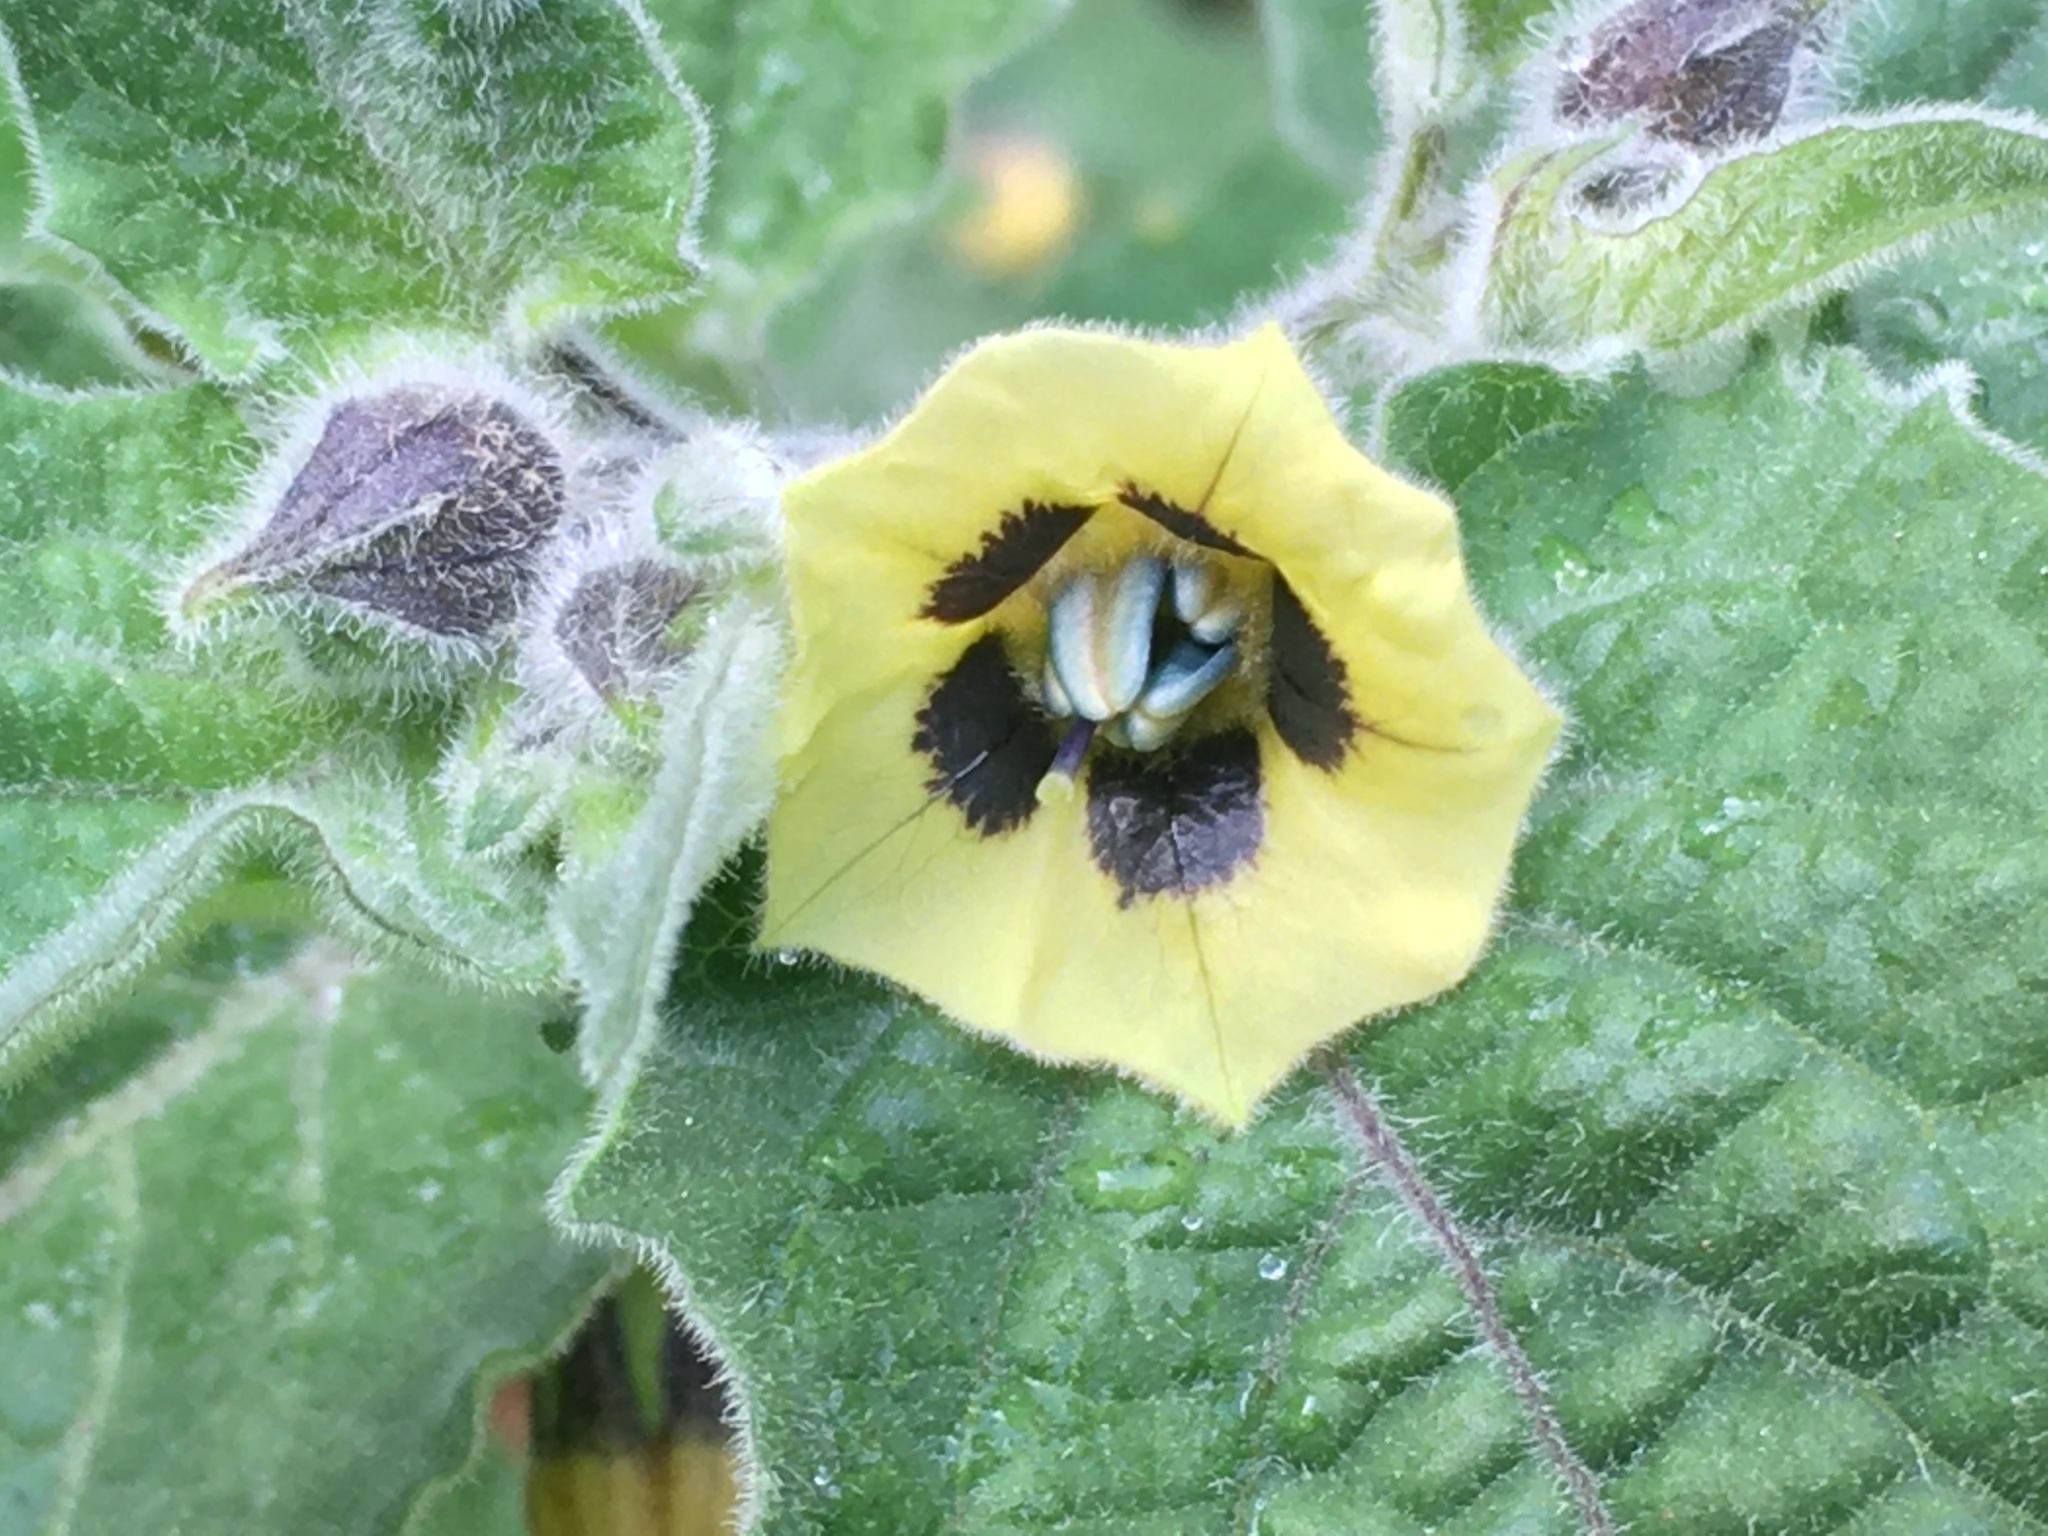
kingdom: Plantae
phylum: Tracheophyta
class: Magnoliopsida
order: Solanales
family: Solanaceae
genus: Physalis
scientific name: Physalis peruviana
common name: Cape-gooseberry
